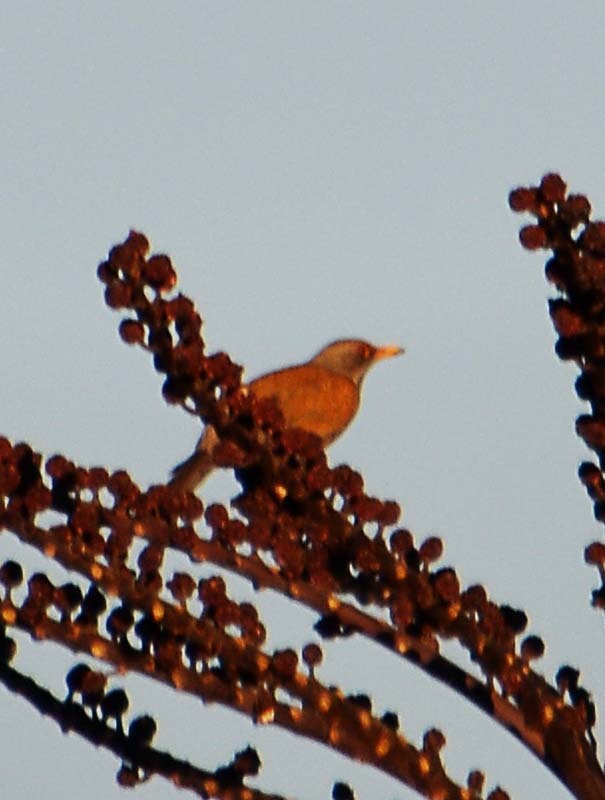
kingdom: Animalia
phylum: Chordata
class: Aves
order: Passeriformes
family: Turdidae
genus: Turdus
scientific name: Turdus rufopalliatus
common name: Rufous-backed robin
